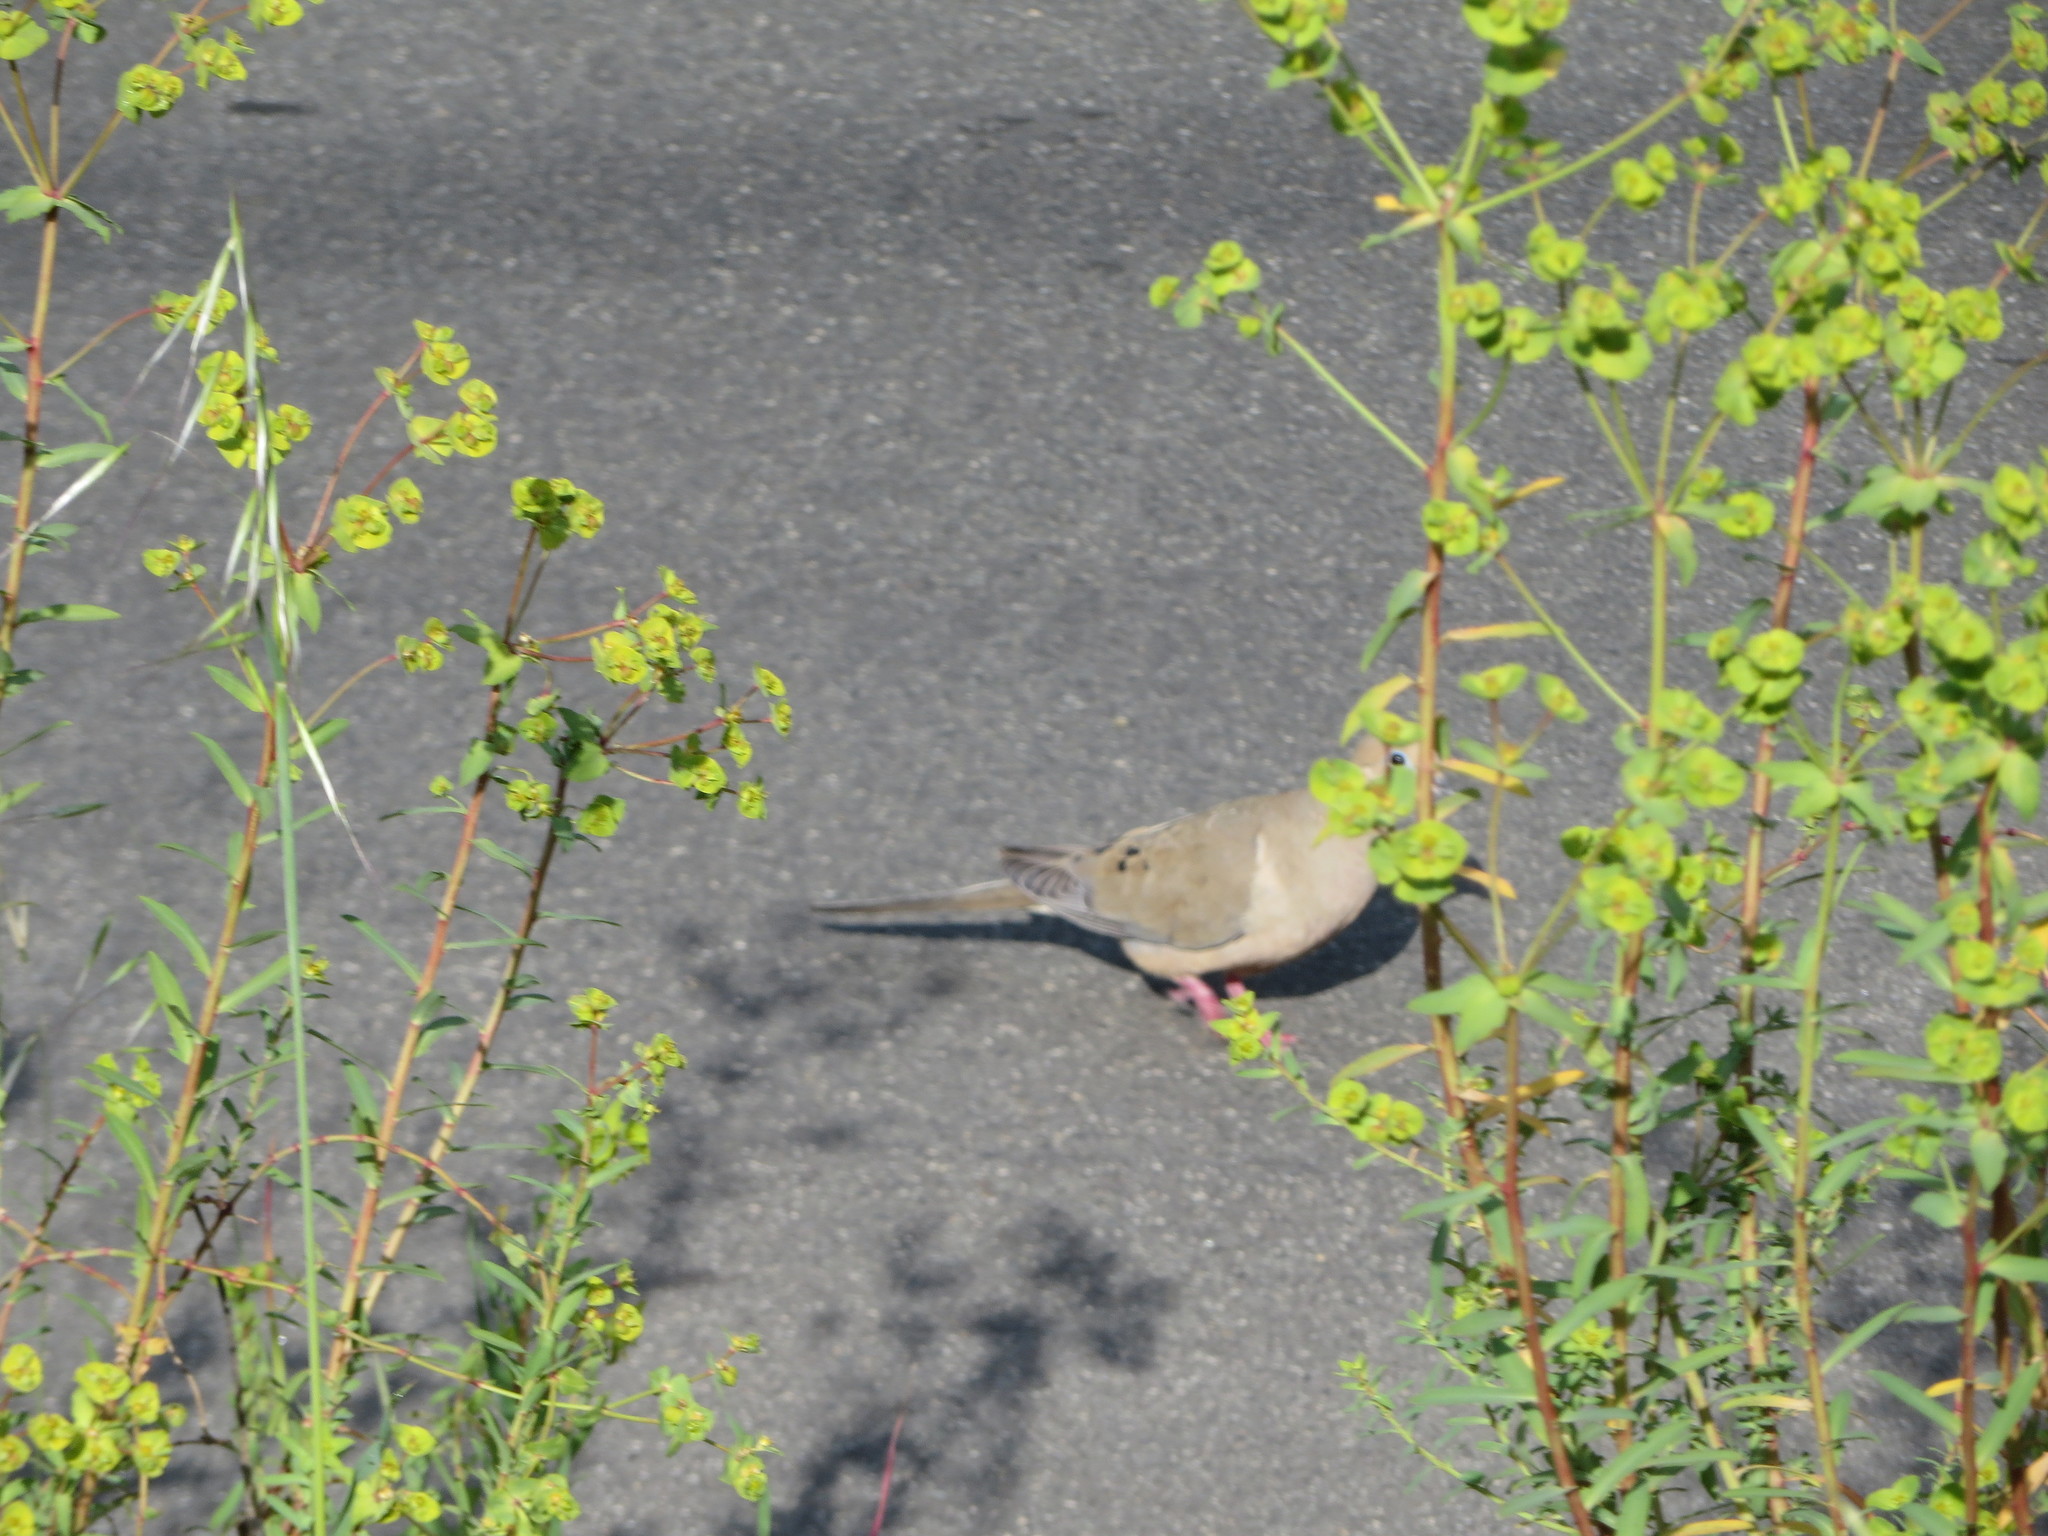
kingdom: Animalia
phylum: Chordata
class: Aves
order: Columbiformes
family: Columbidae
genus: Zenaida
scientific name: Zenaida macroura
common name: Mourning dove
